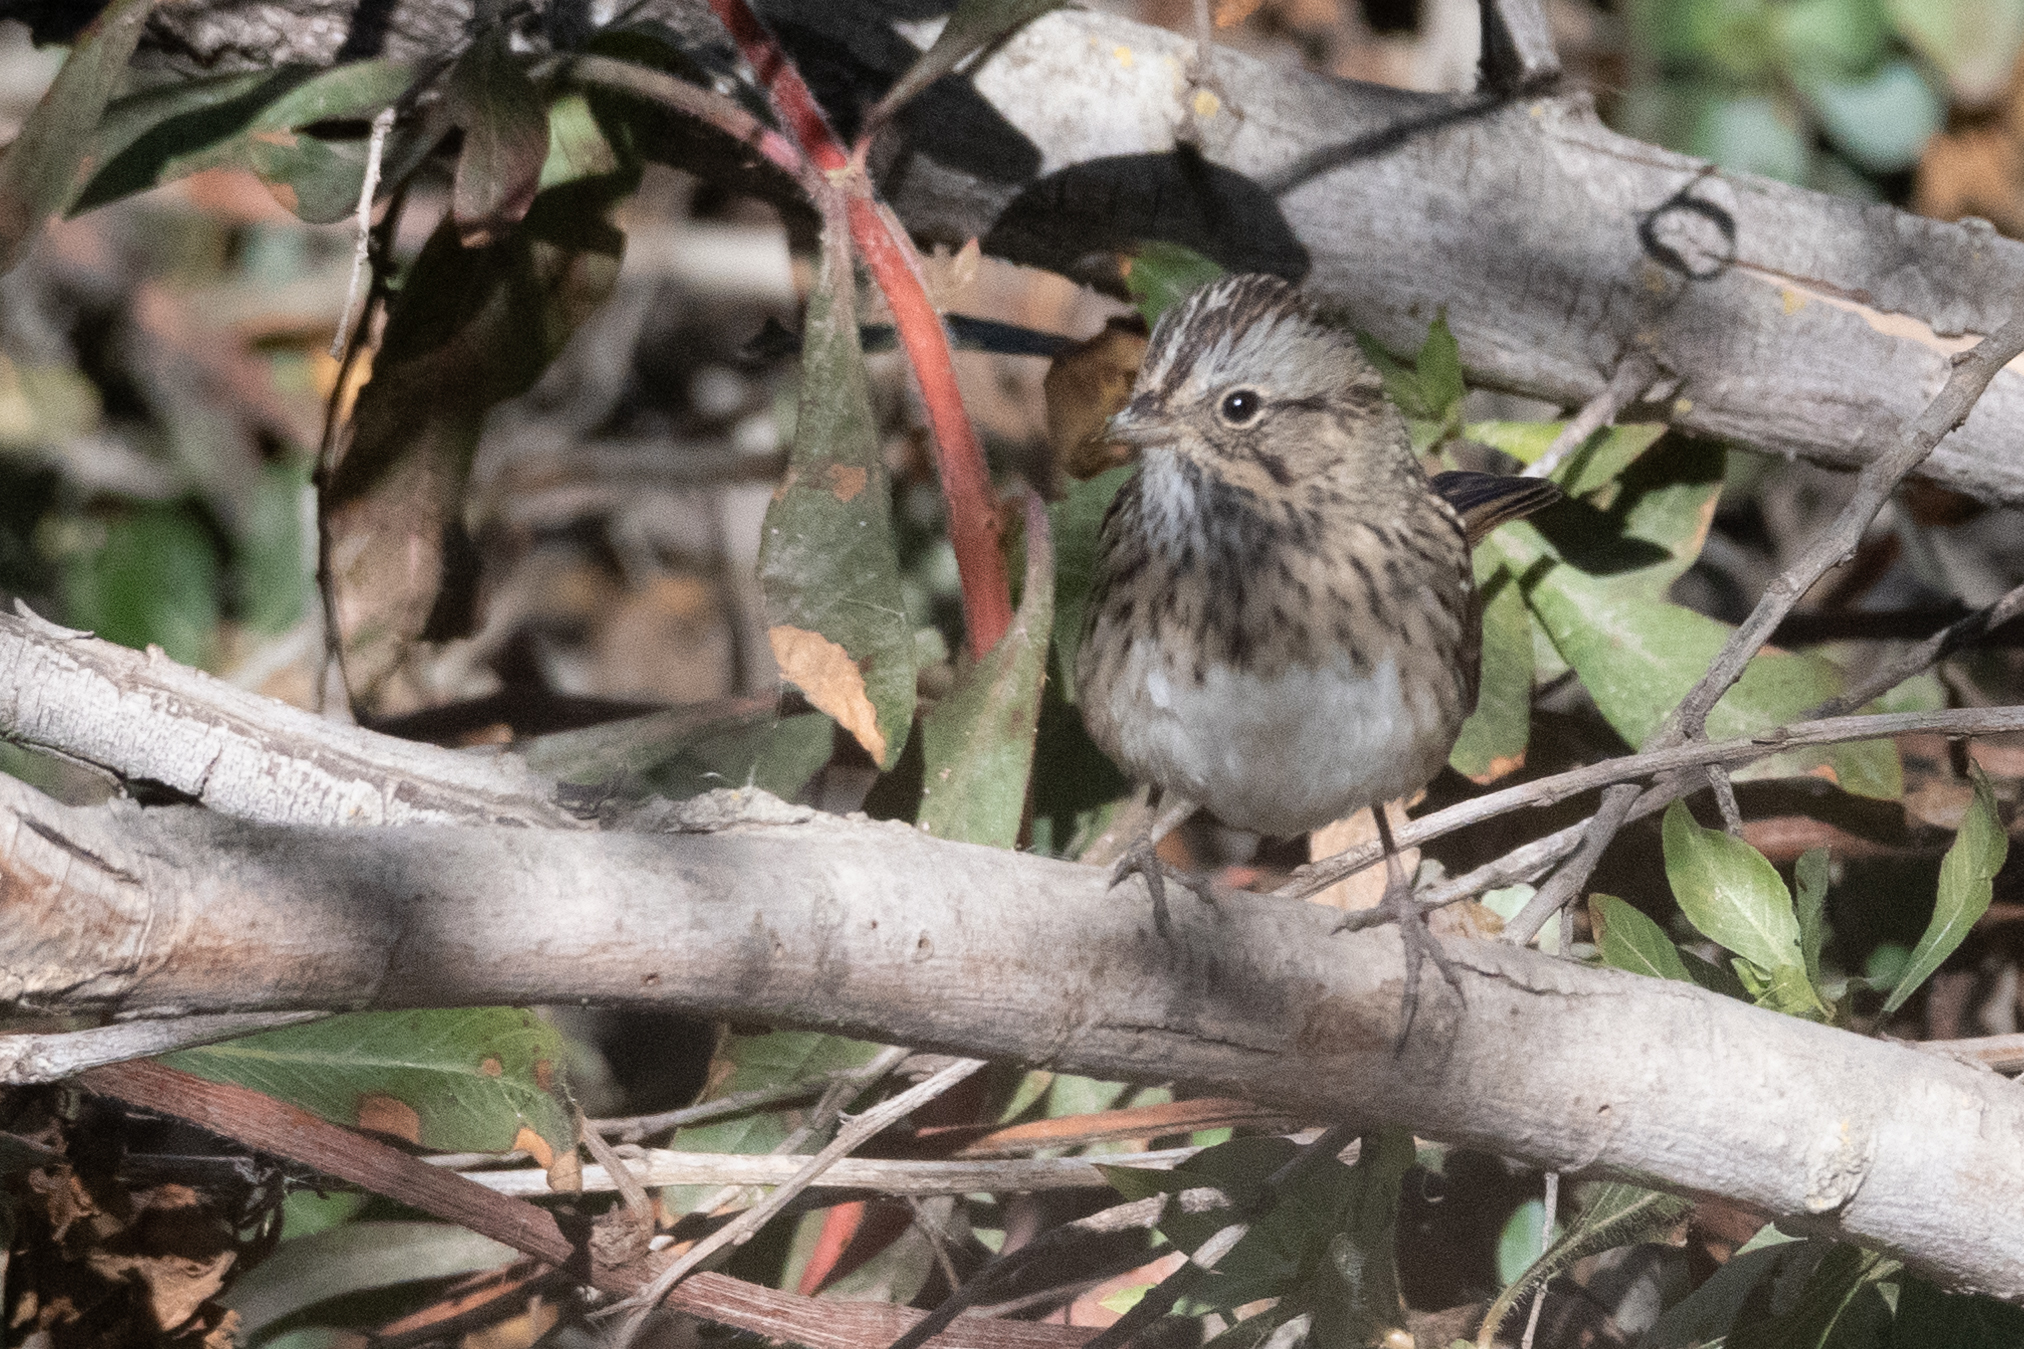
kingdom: Animalia
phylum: Chordata
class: Aves
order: Passeriformes
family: Passerellidae
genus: Melospiza
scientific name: Melospiza lincolnii
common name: Lincoln's sparrow
